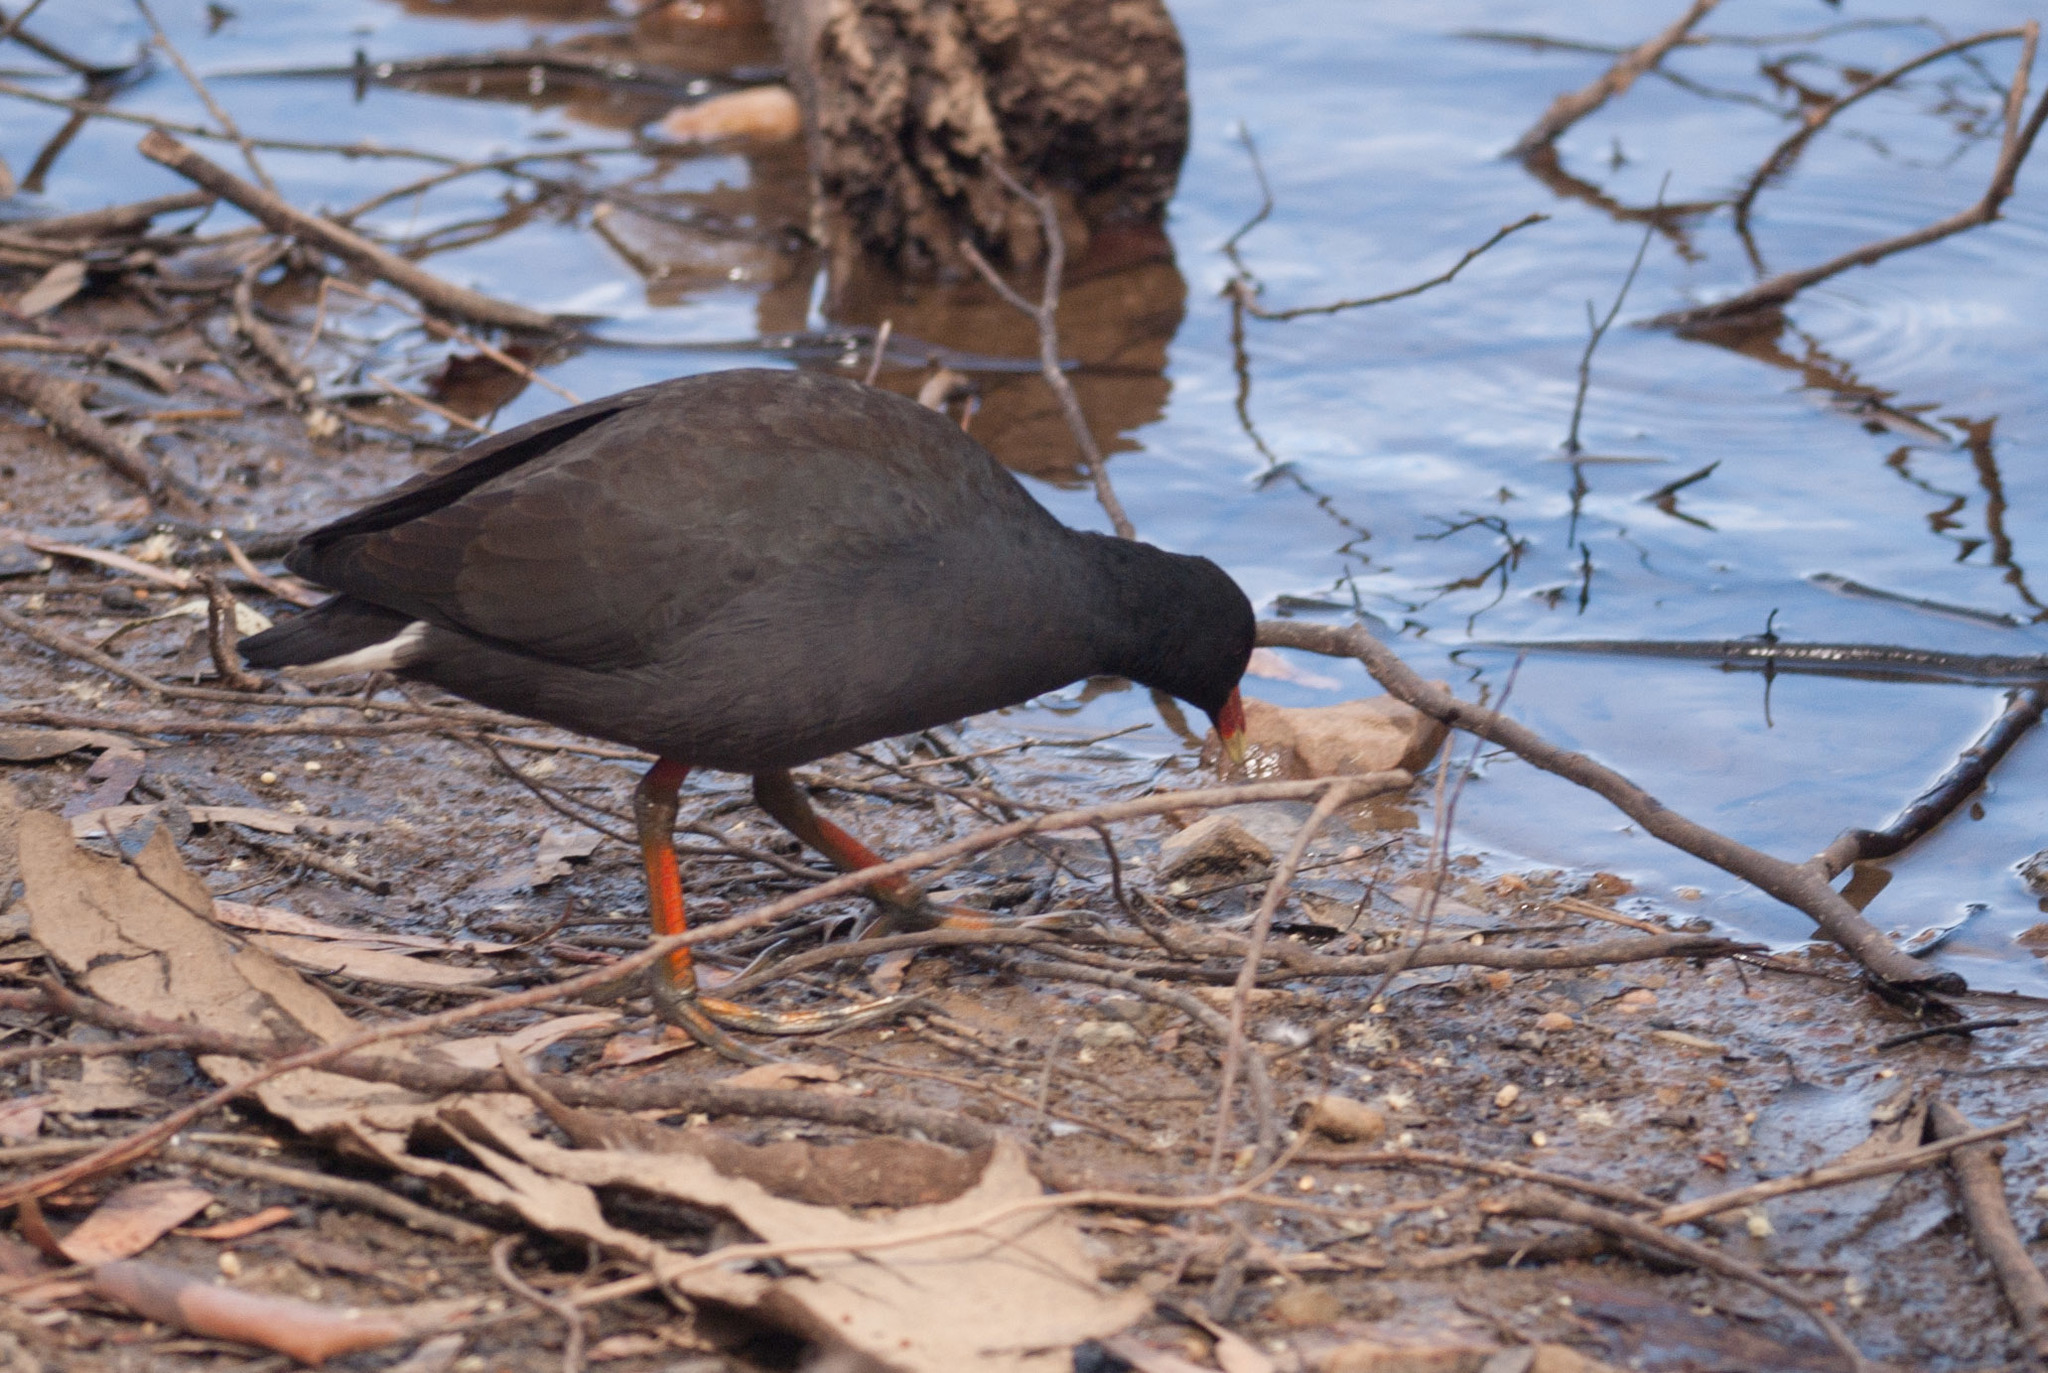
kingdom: Animalia
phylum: Chordata
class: Aves
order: Gruiformes
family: Rallidae
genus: Gallinula
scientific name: Gallinula tenebrosa
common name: Dusky moorhen
